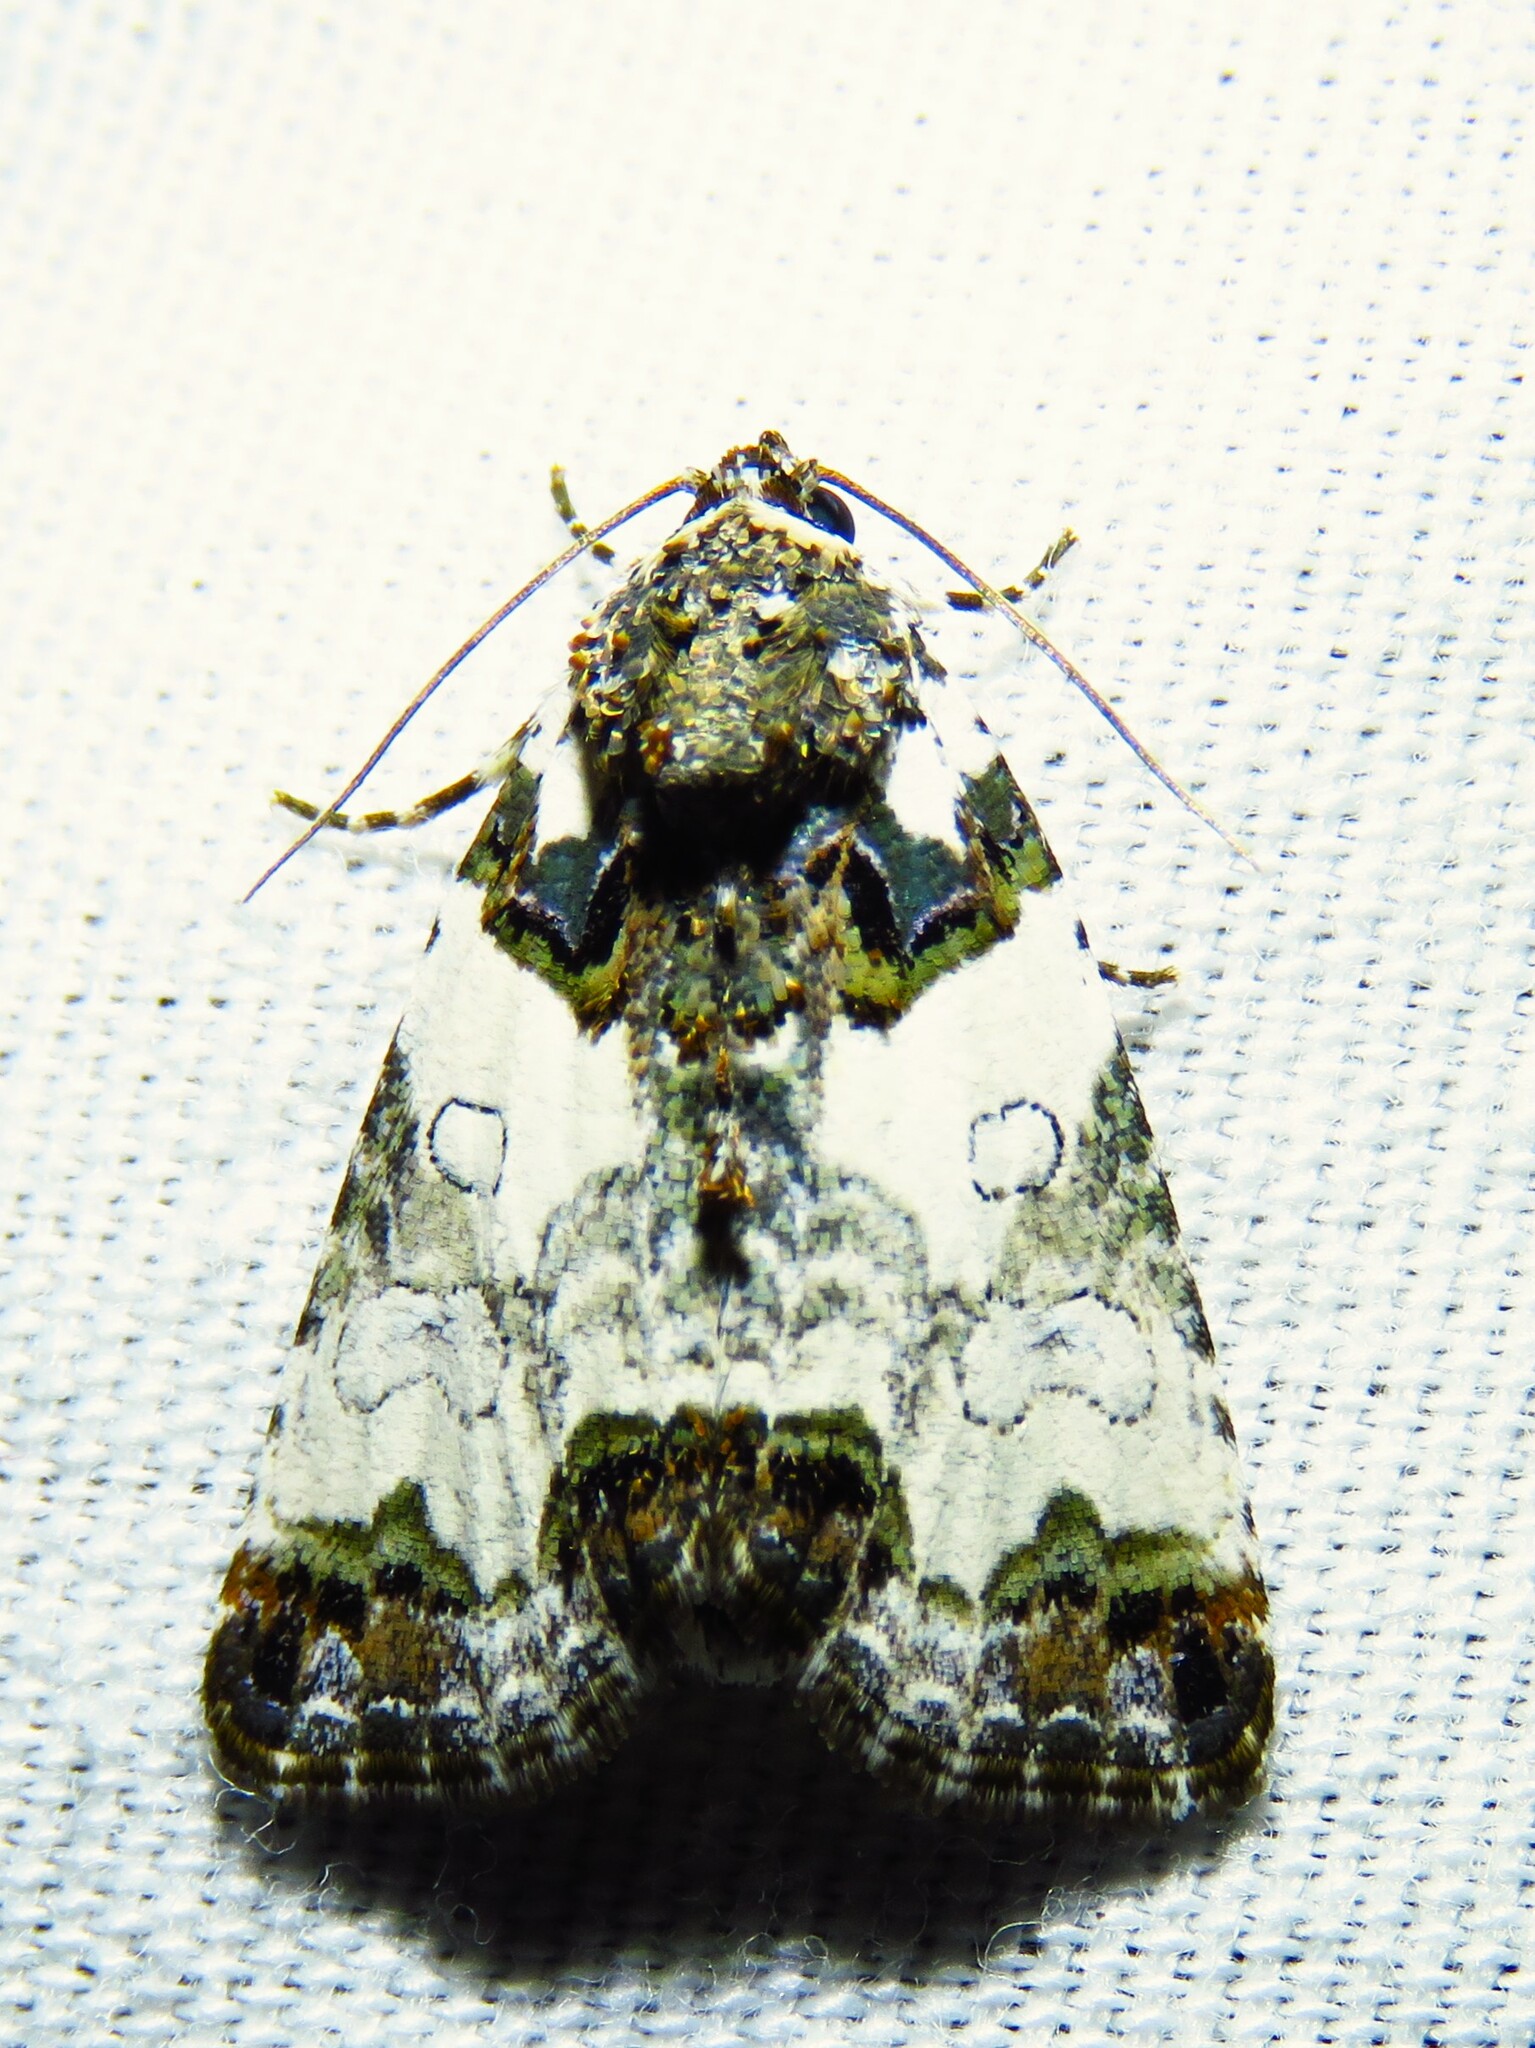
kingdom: Animalia
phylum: Arthropoda
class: Insecta
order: Lepidoptera
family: Noctuidae
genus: Cerma
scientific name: Cerma cerintha
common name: Tufted bird-dropping moth
